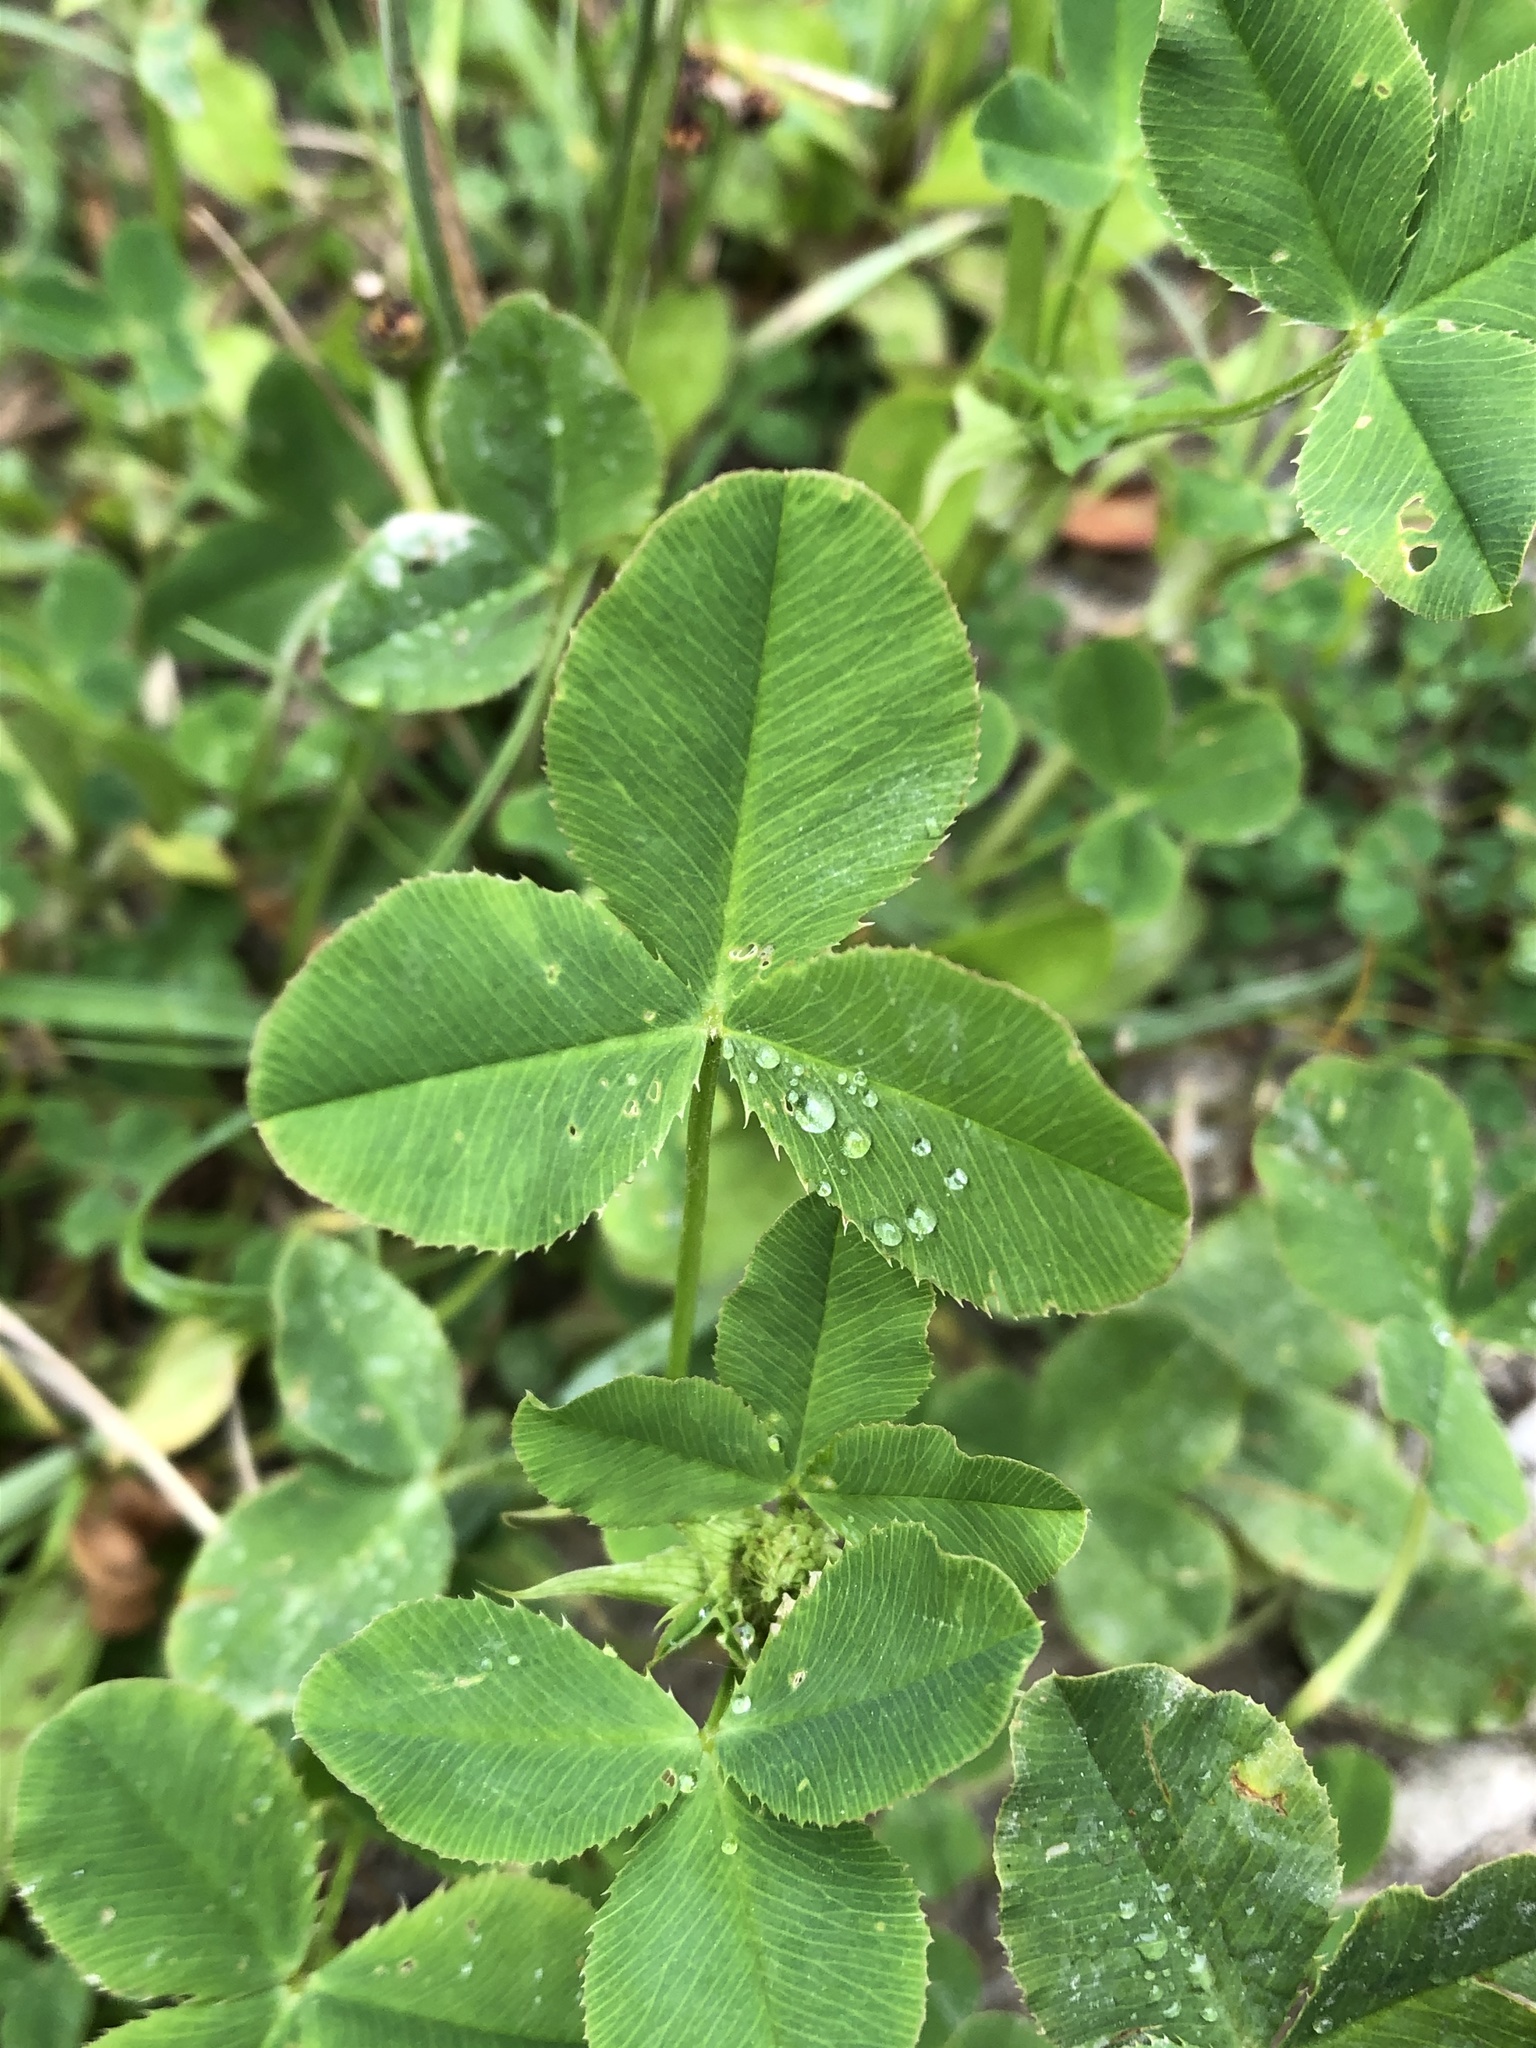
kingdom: Plantae
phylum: Tracheophyta
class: Magnoliopsida
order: Fabales
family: Fabaceae
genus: Trifolium
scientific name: Trifolium hybridum
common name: Alsike clover
